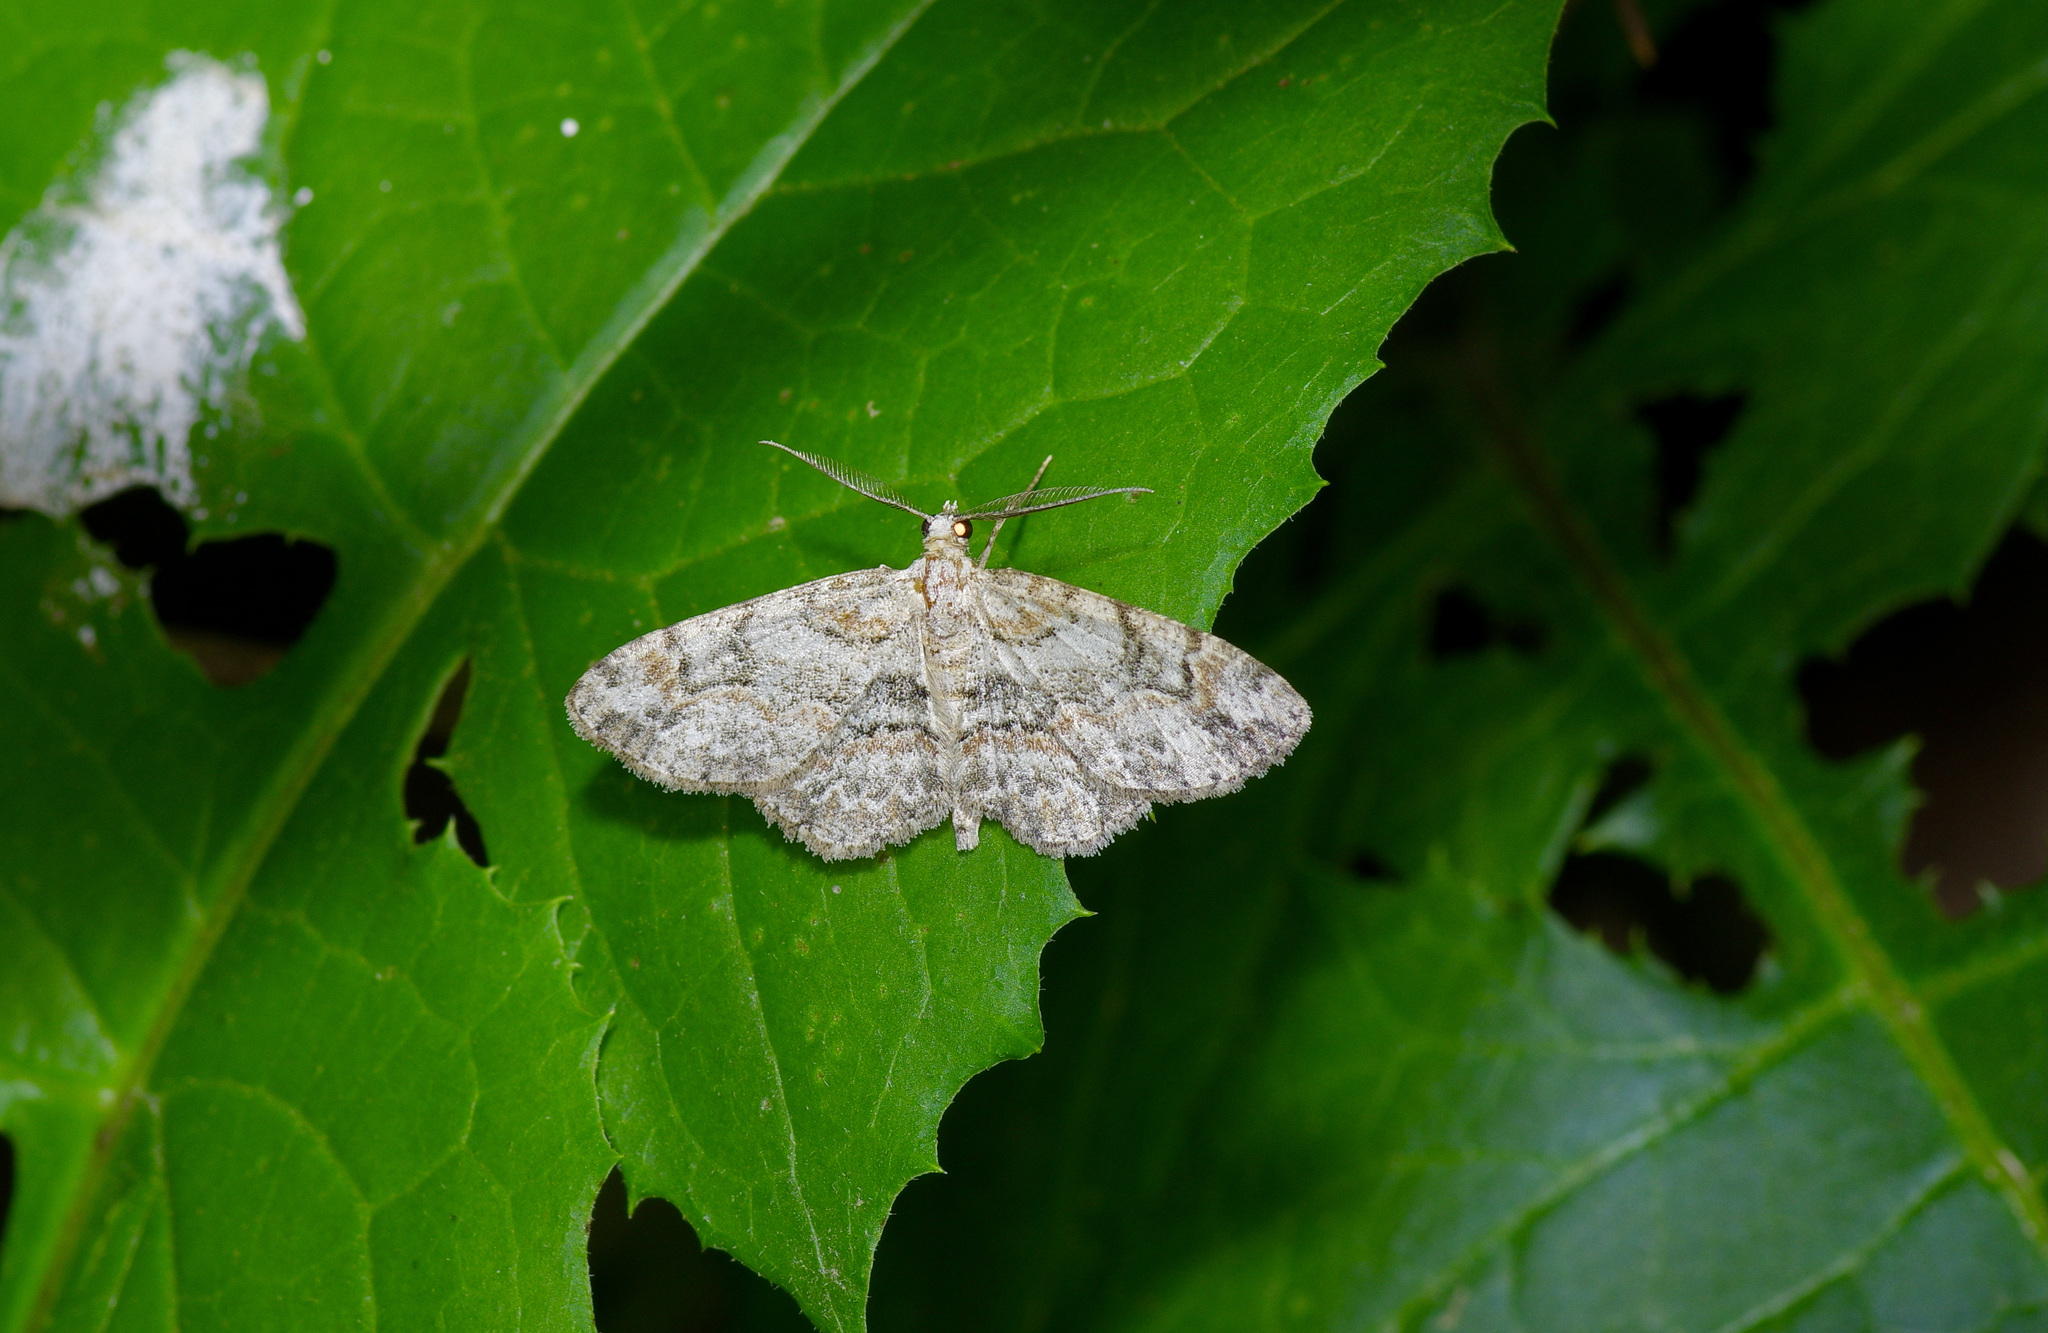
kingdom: Animalia
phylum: Arthropoda
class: Insecta
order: Lepidoptera
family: Geometridae
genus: Iridopsis
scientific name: Iridopsis ephyraria
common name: Pale-winged gray
